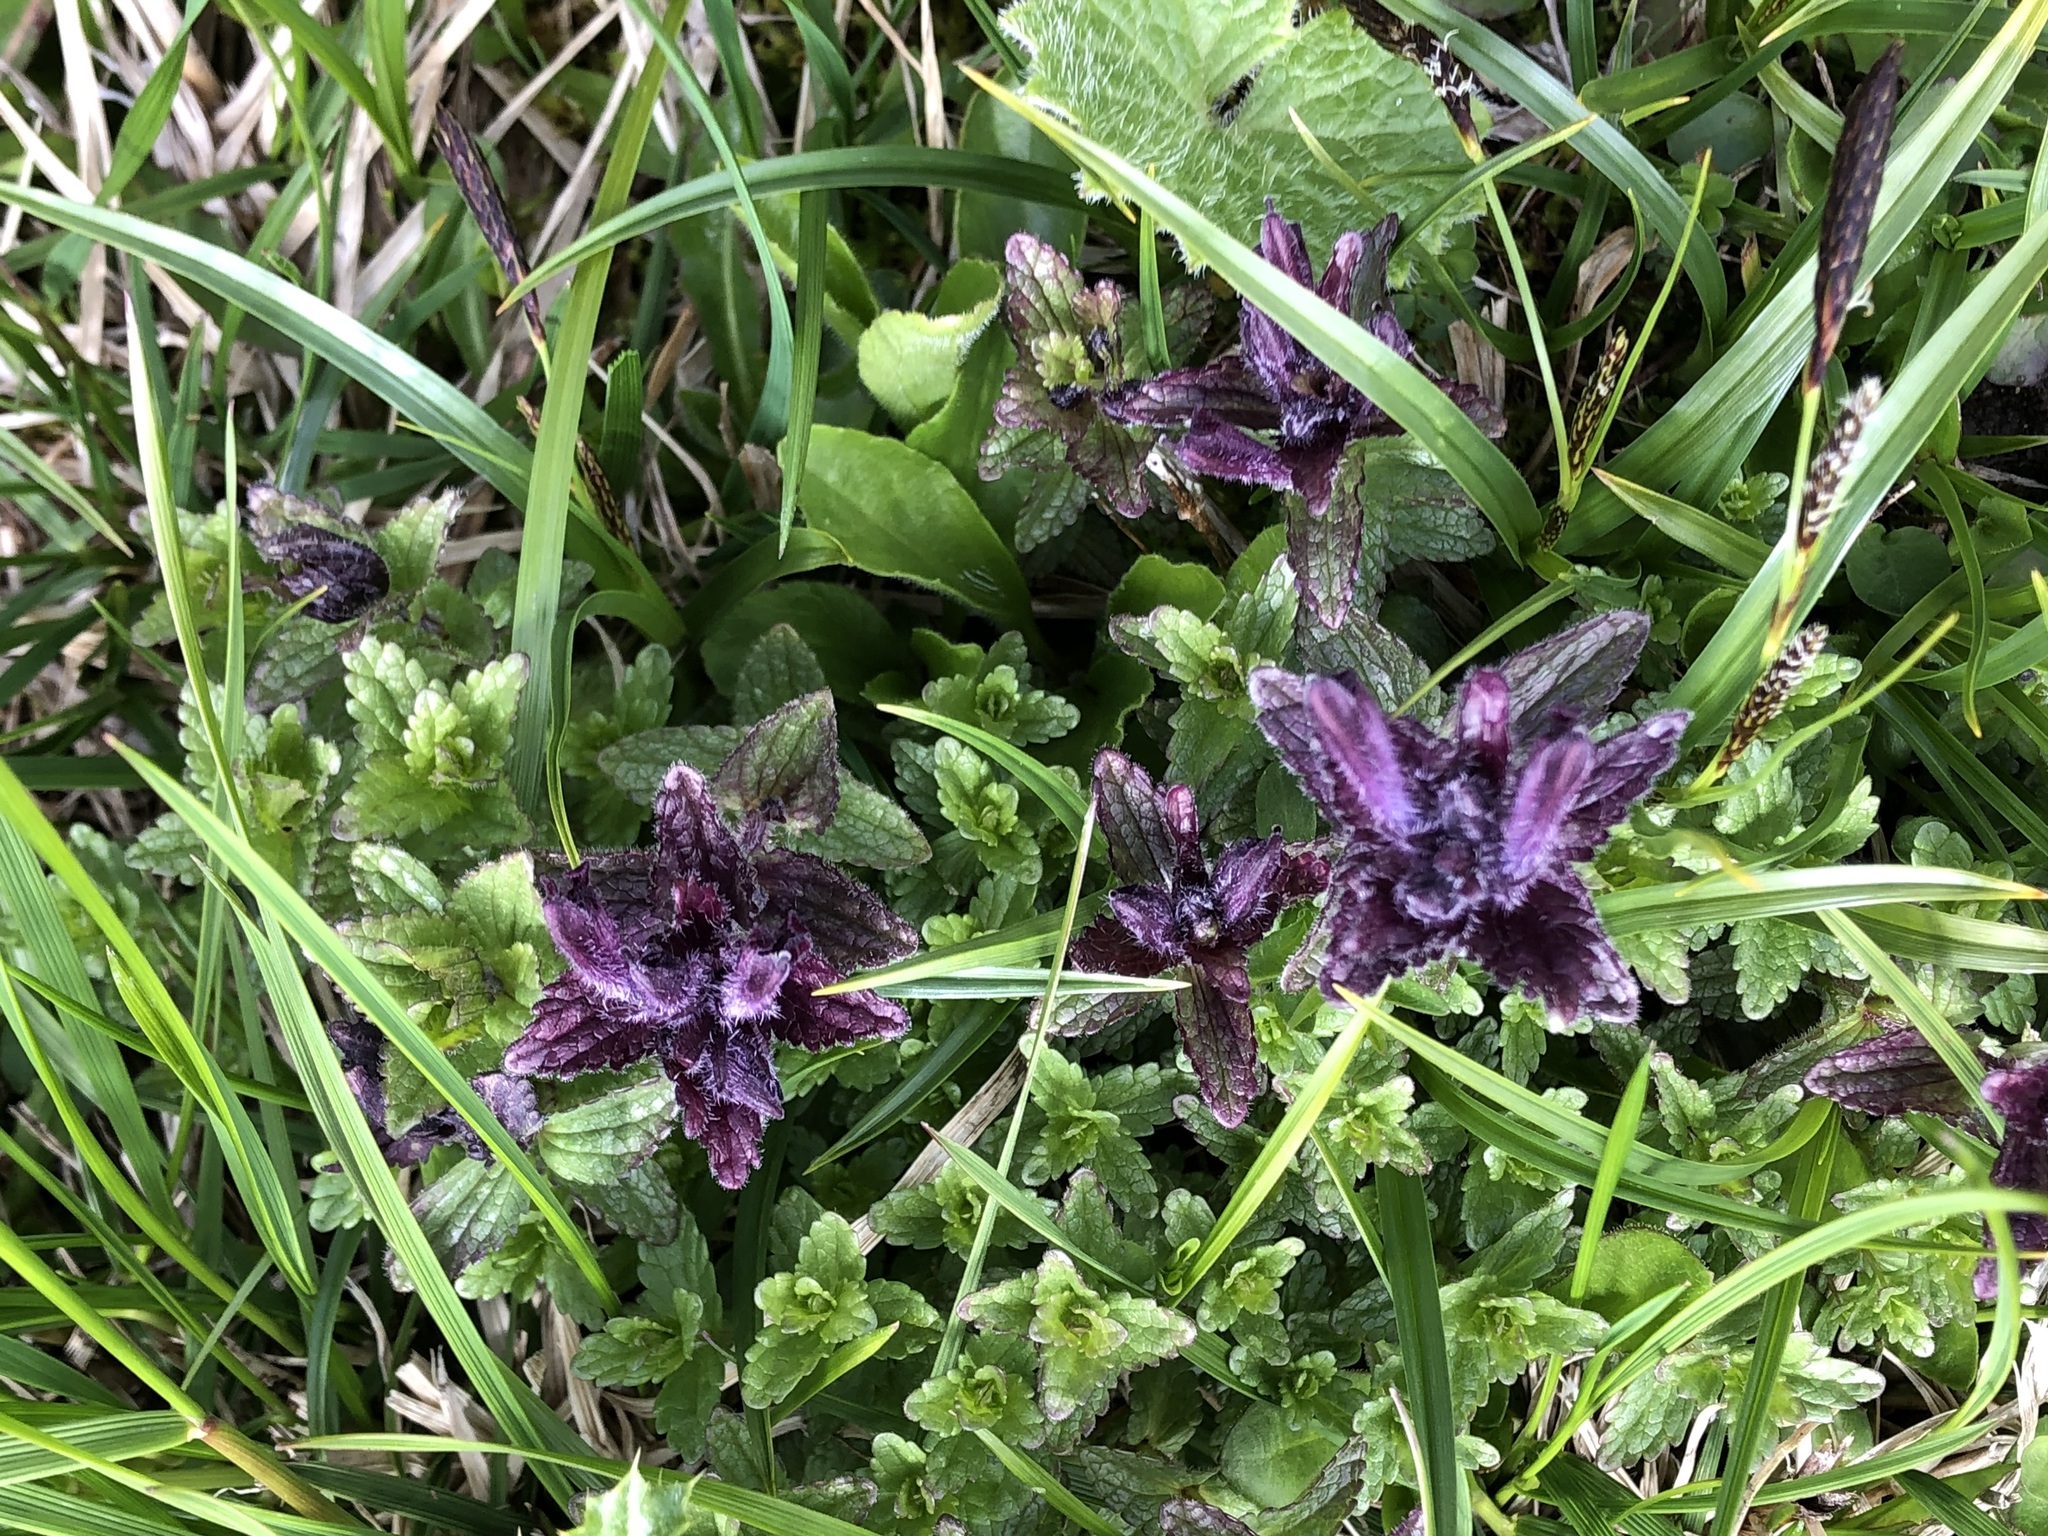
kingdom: Plantae
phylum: Tracheophyta
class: Magnoliopsida
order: Lamiales
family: Orobanchaceae
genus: Bartsia
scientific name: Bartsia alpina
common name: Alpine bartsia
